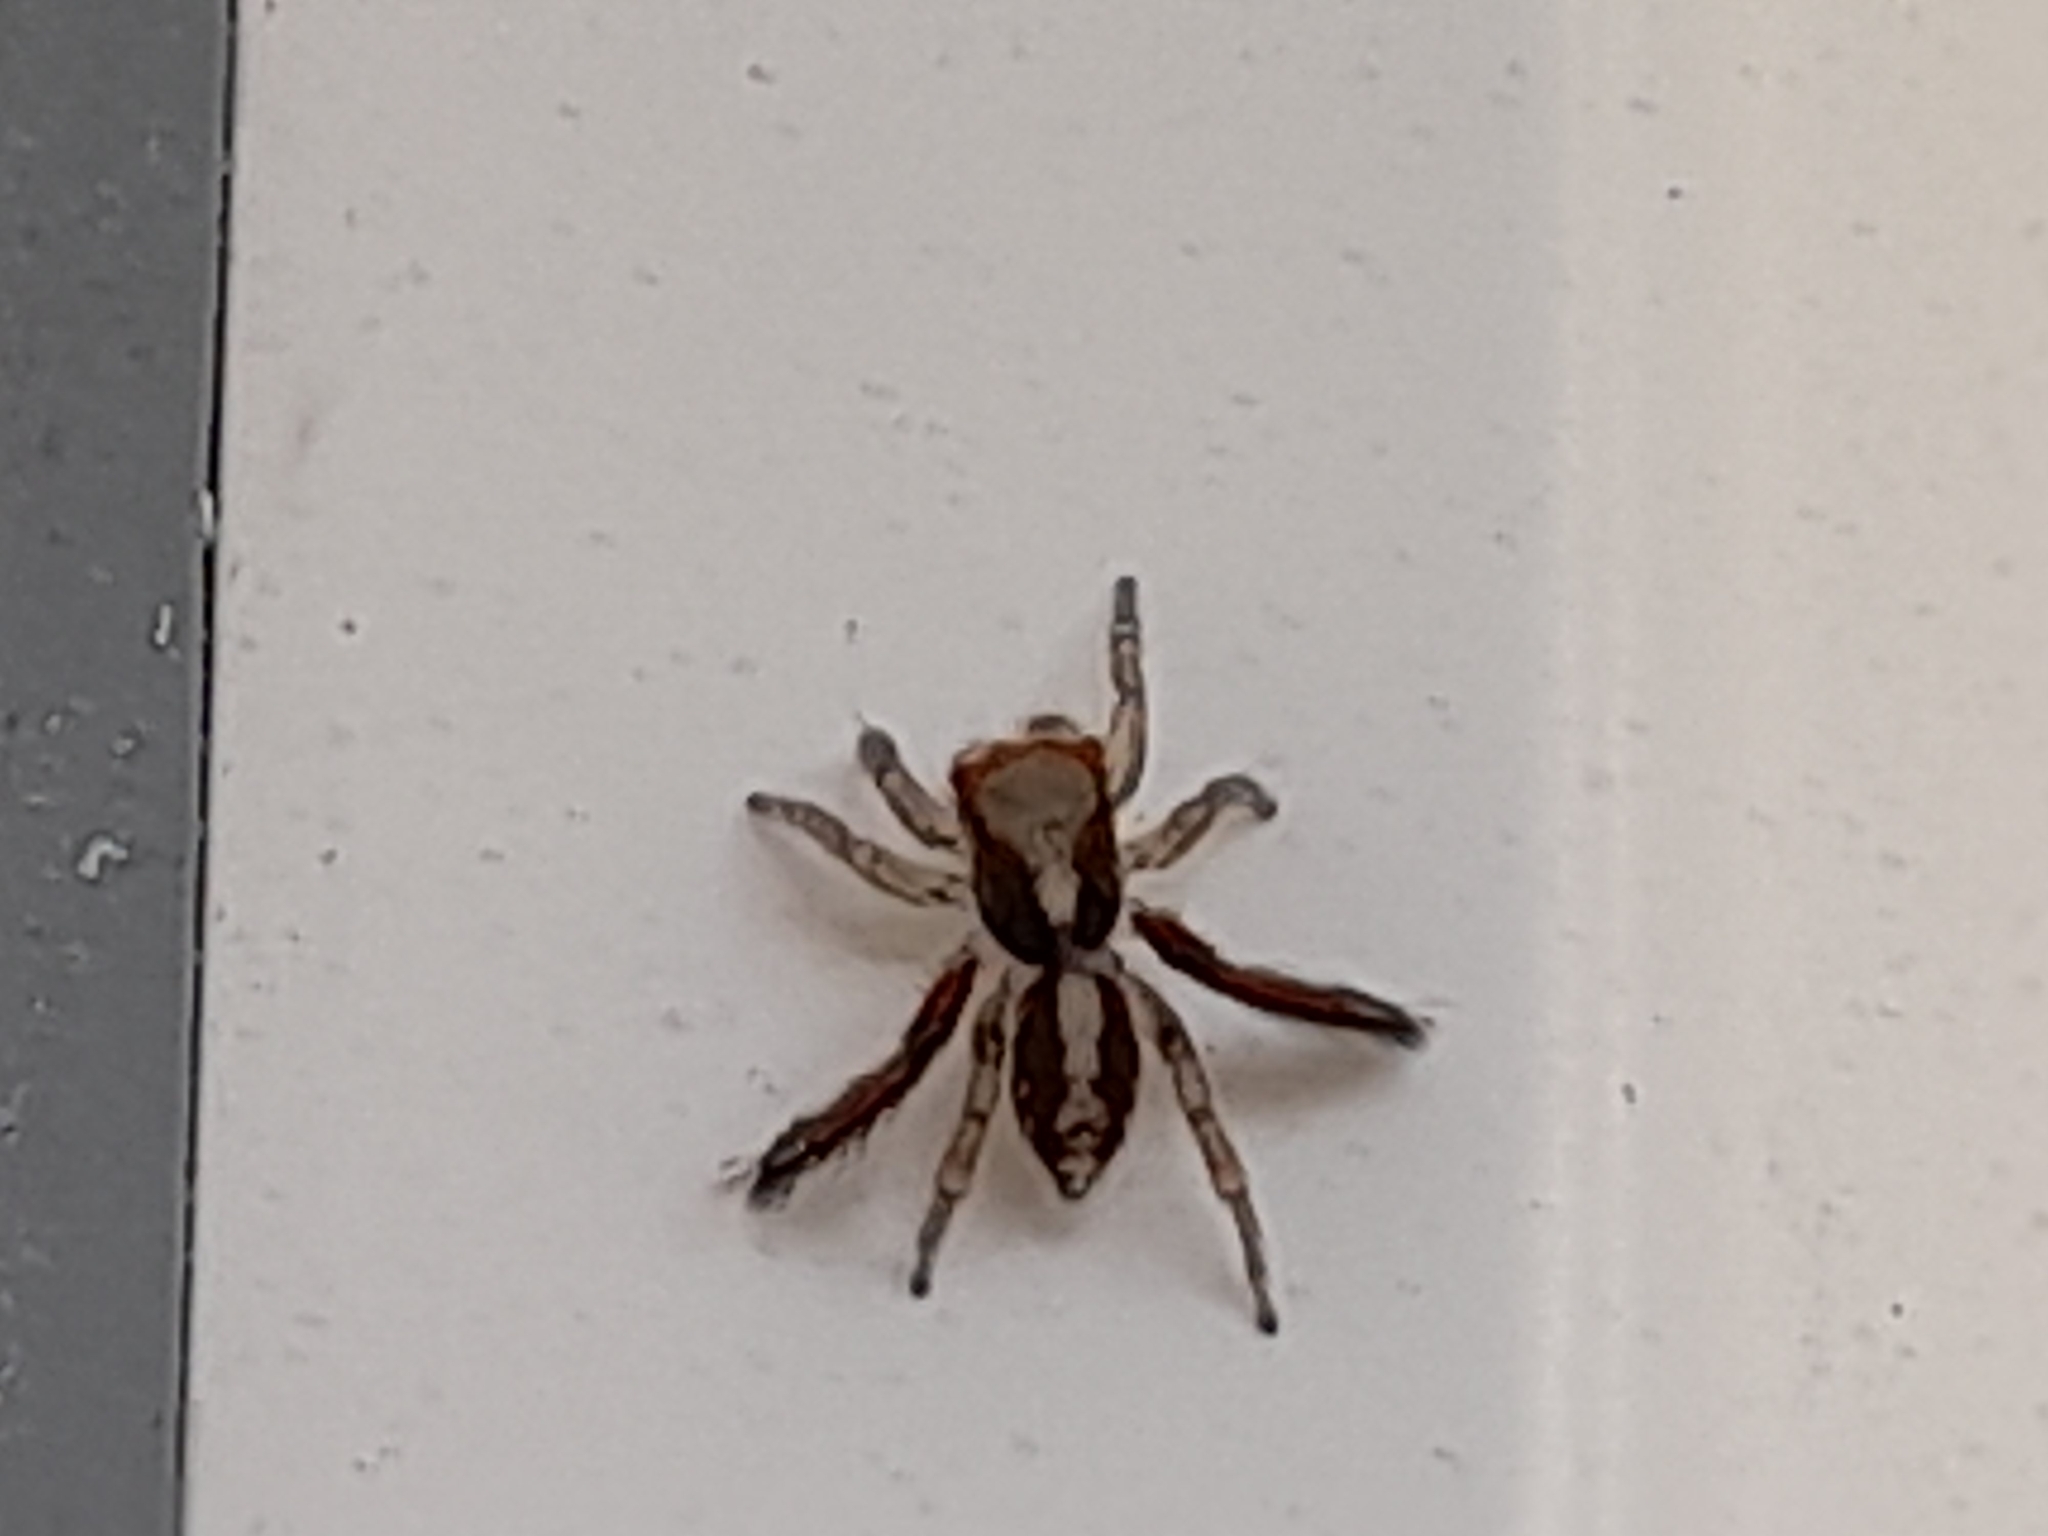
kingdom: Animalia
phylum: Arthropoda
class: Arachnida
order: Araneae
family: Salticidae
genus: Saitis
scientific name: Saitis barbipes
